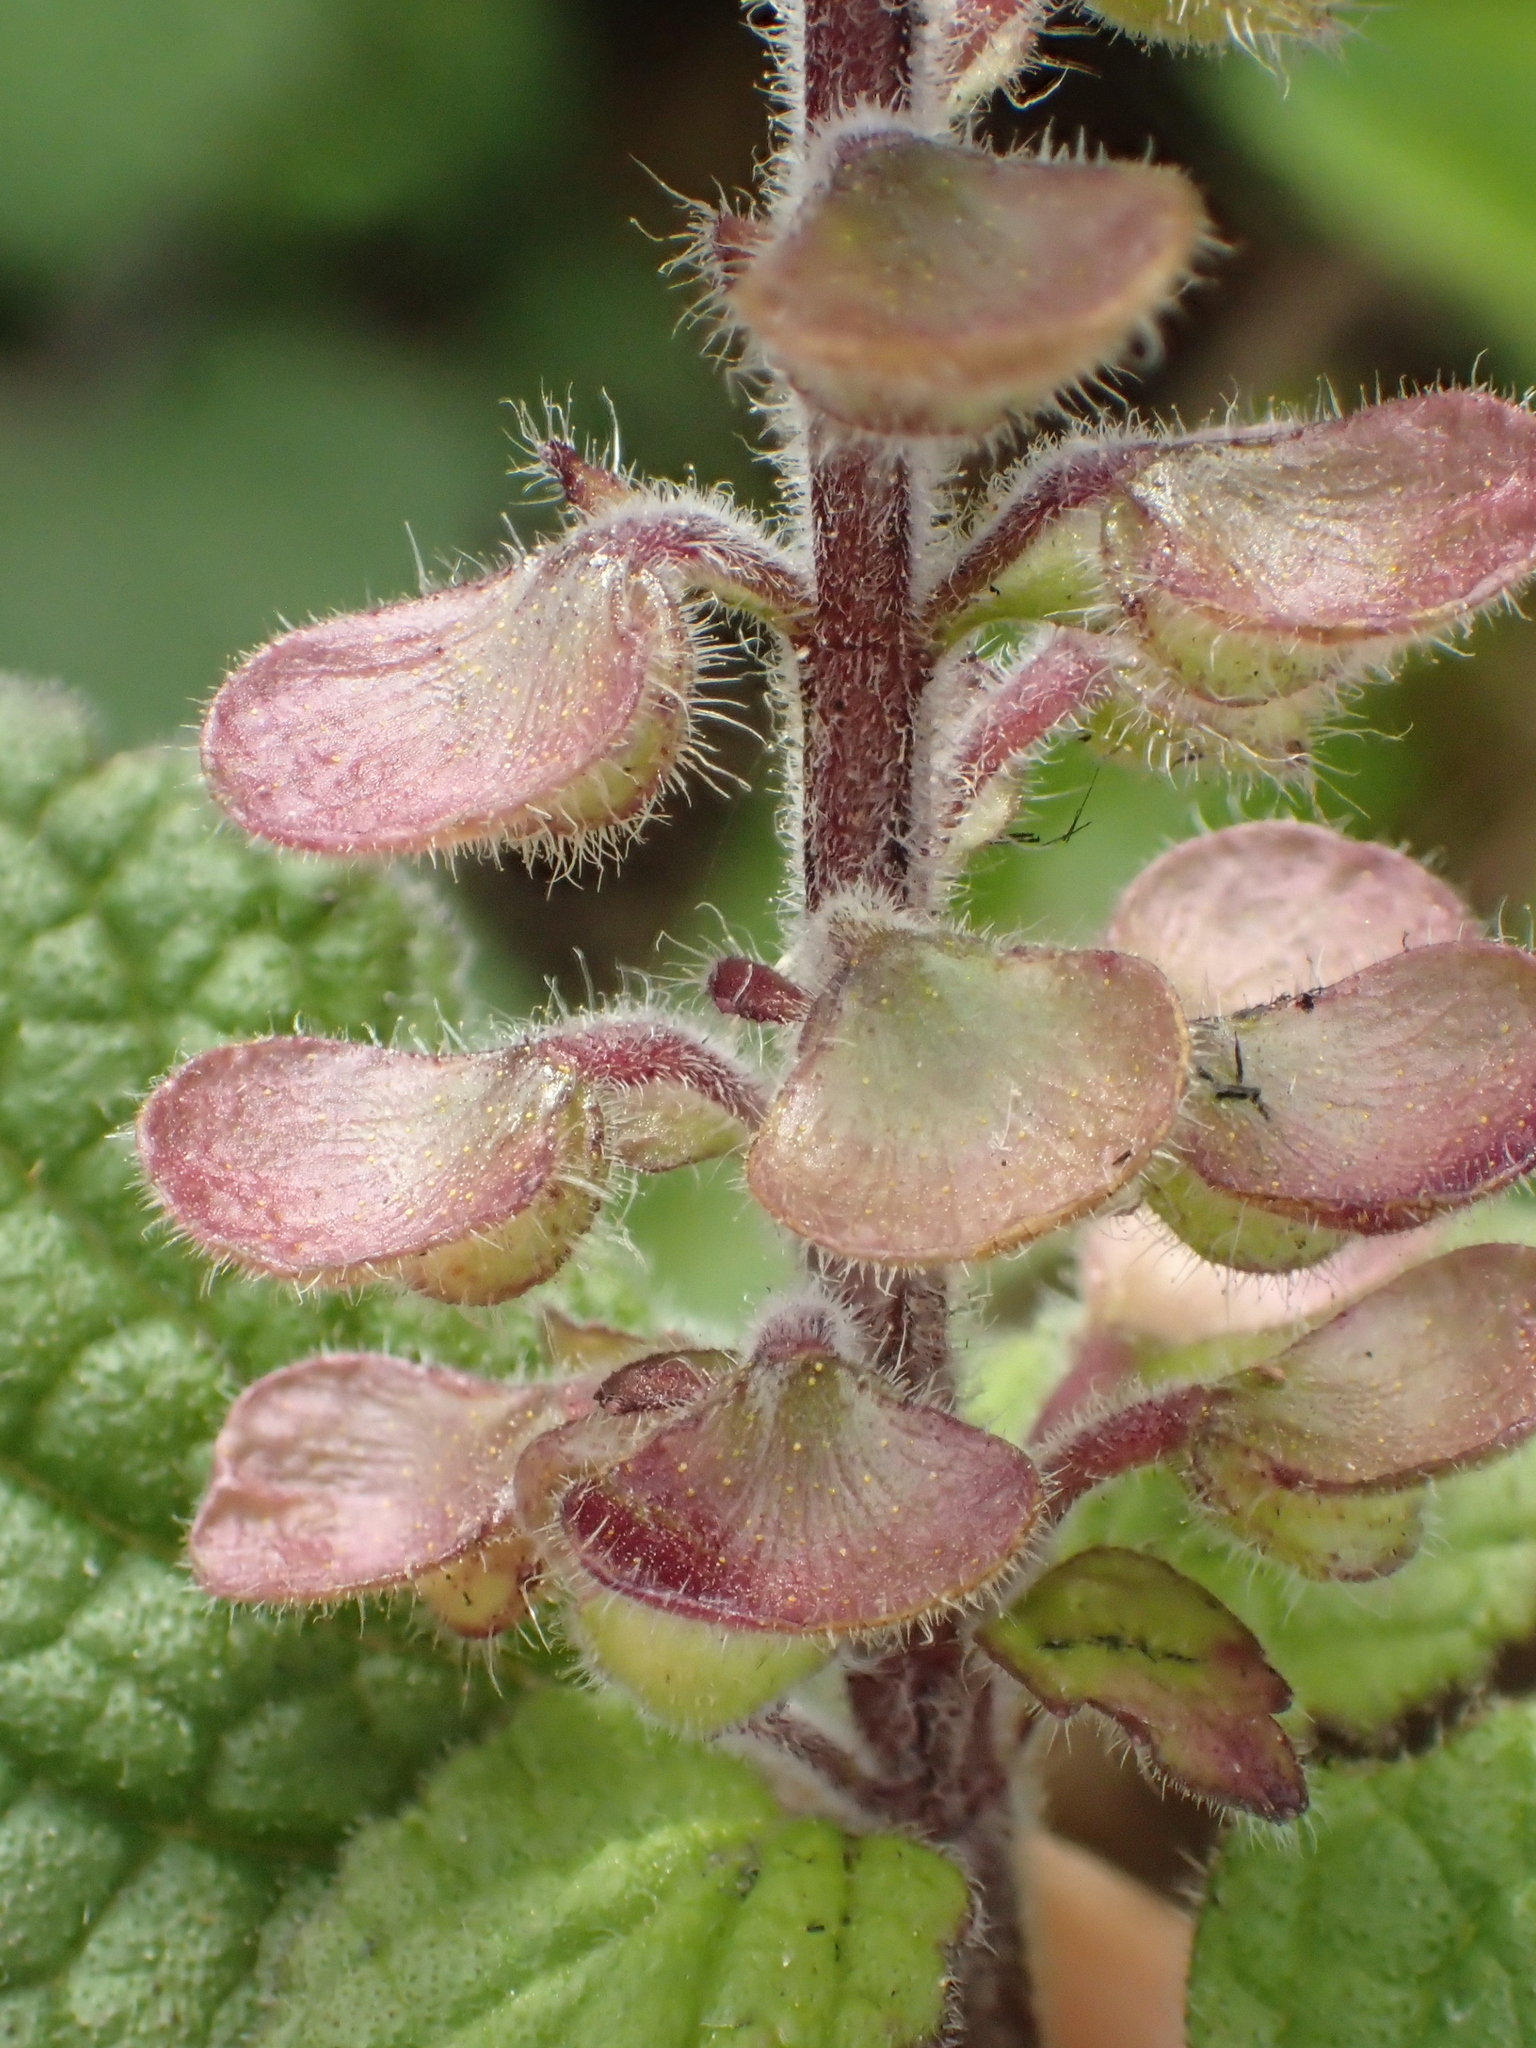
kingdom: Plantae
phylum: Tracheophyta
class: Magnoliopsida
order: Lamiales
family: Lamiaceae
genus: Scutellaria
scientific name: Scutellaria indica
